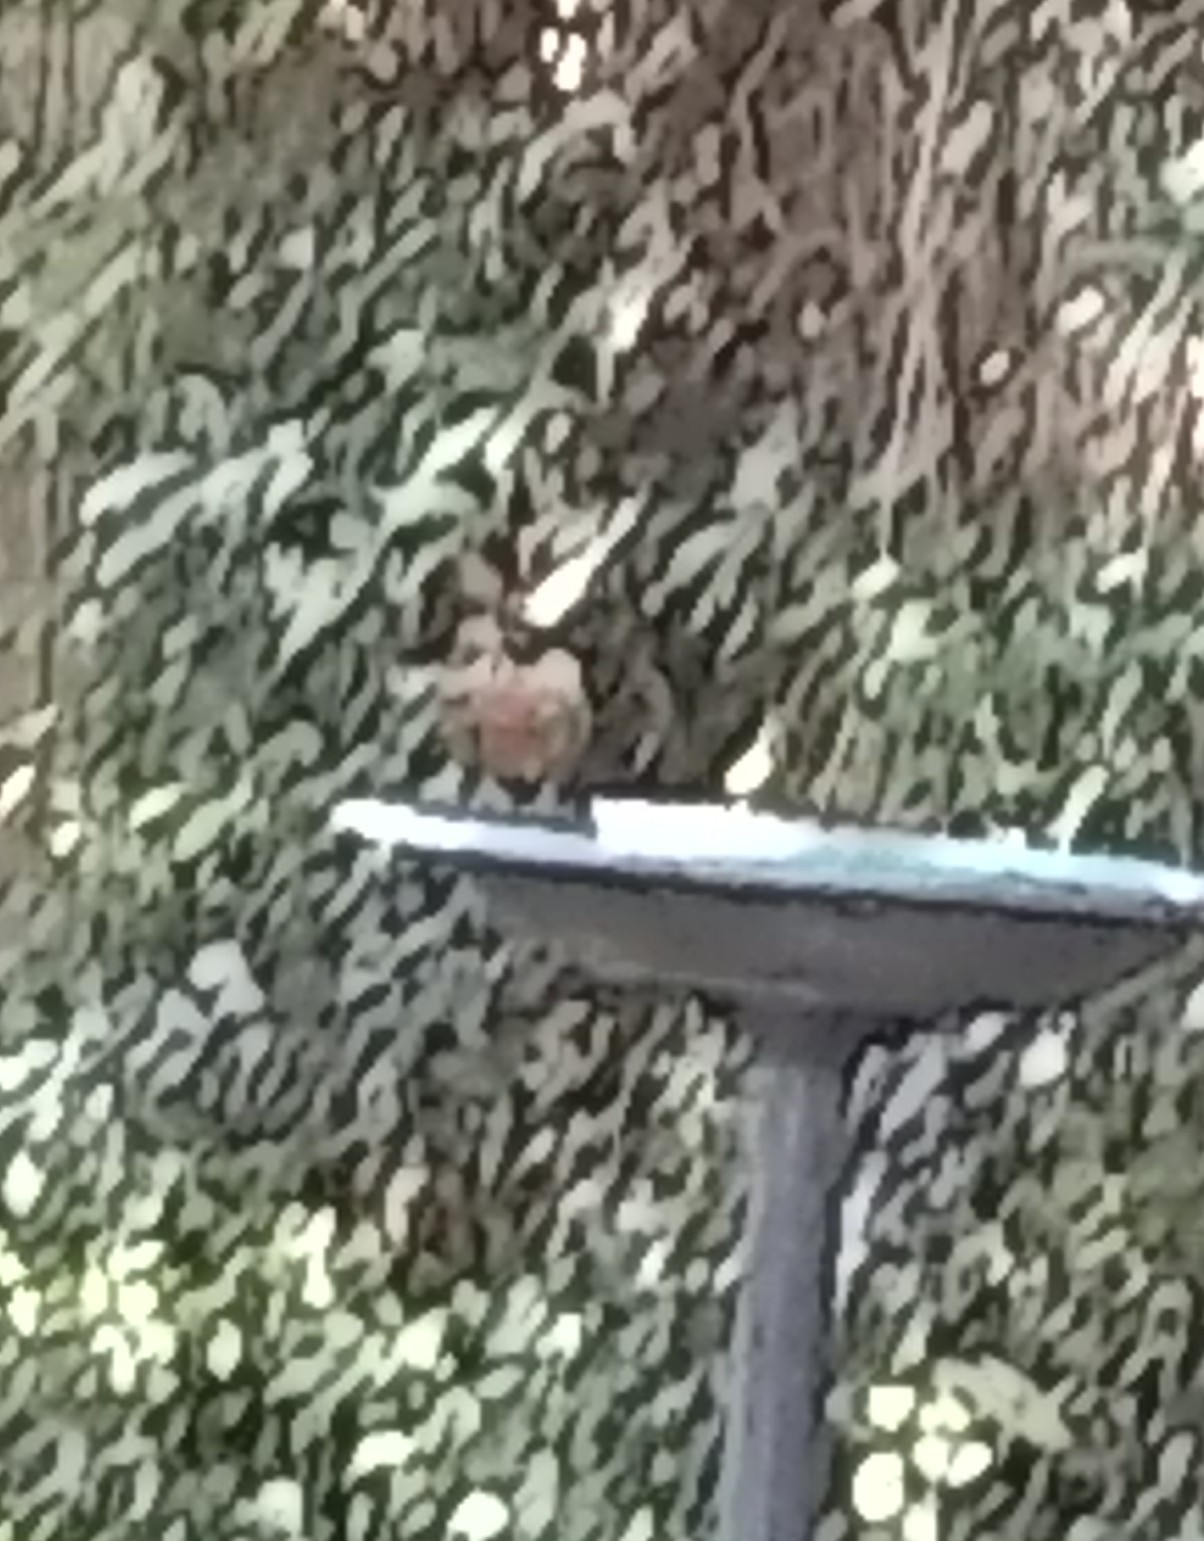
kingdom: Animalia
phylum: Chordata
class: Aves
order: Passeriformes
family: Turdidae
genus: Turdus
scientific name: Turdus migratorius
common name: American robin
